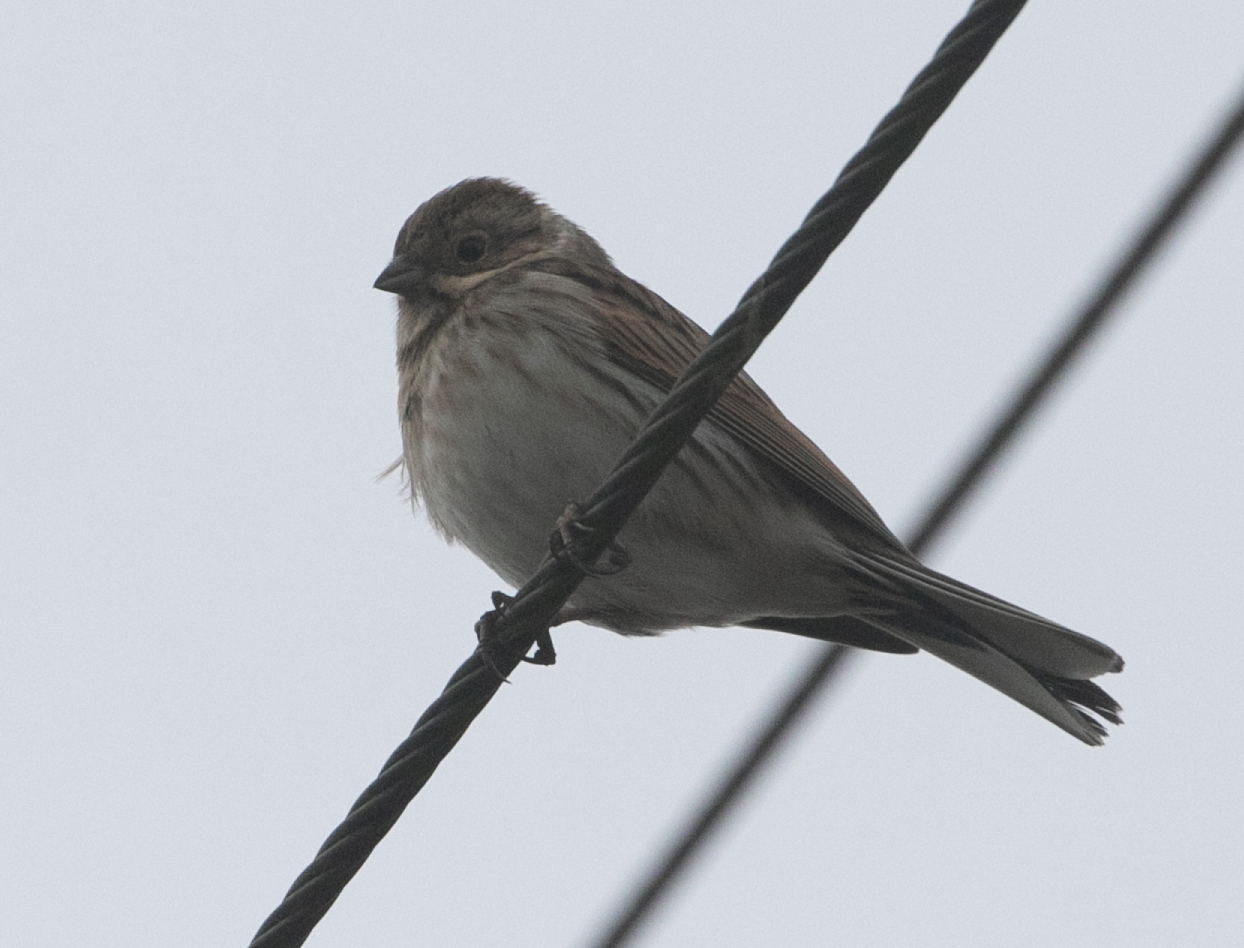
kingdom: Animalia
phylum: Chordata
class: Aves
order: Passeriformes
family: Emberizidae
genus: Emberiza
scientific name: Emberiza schoeniclus
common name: Reed bunting
